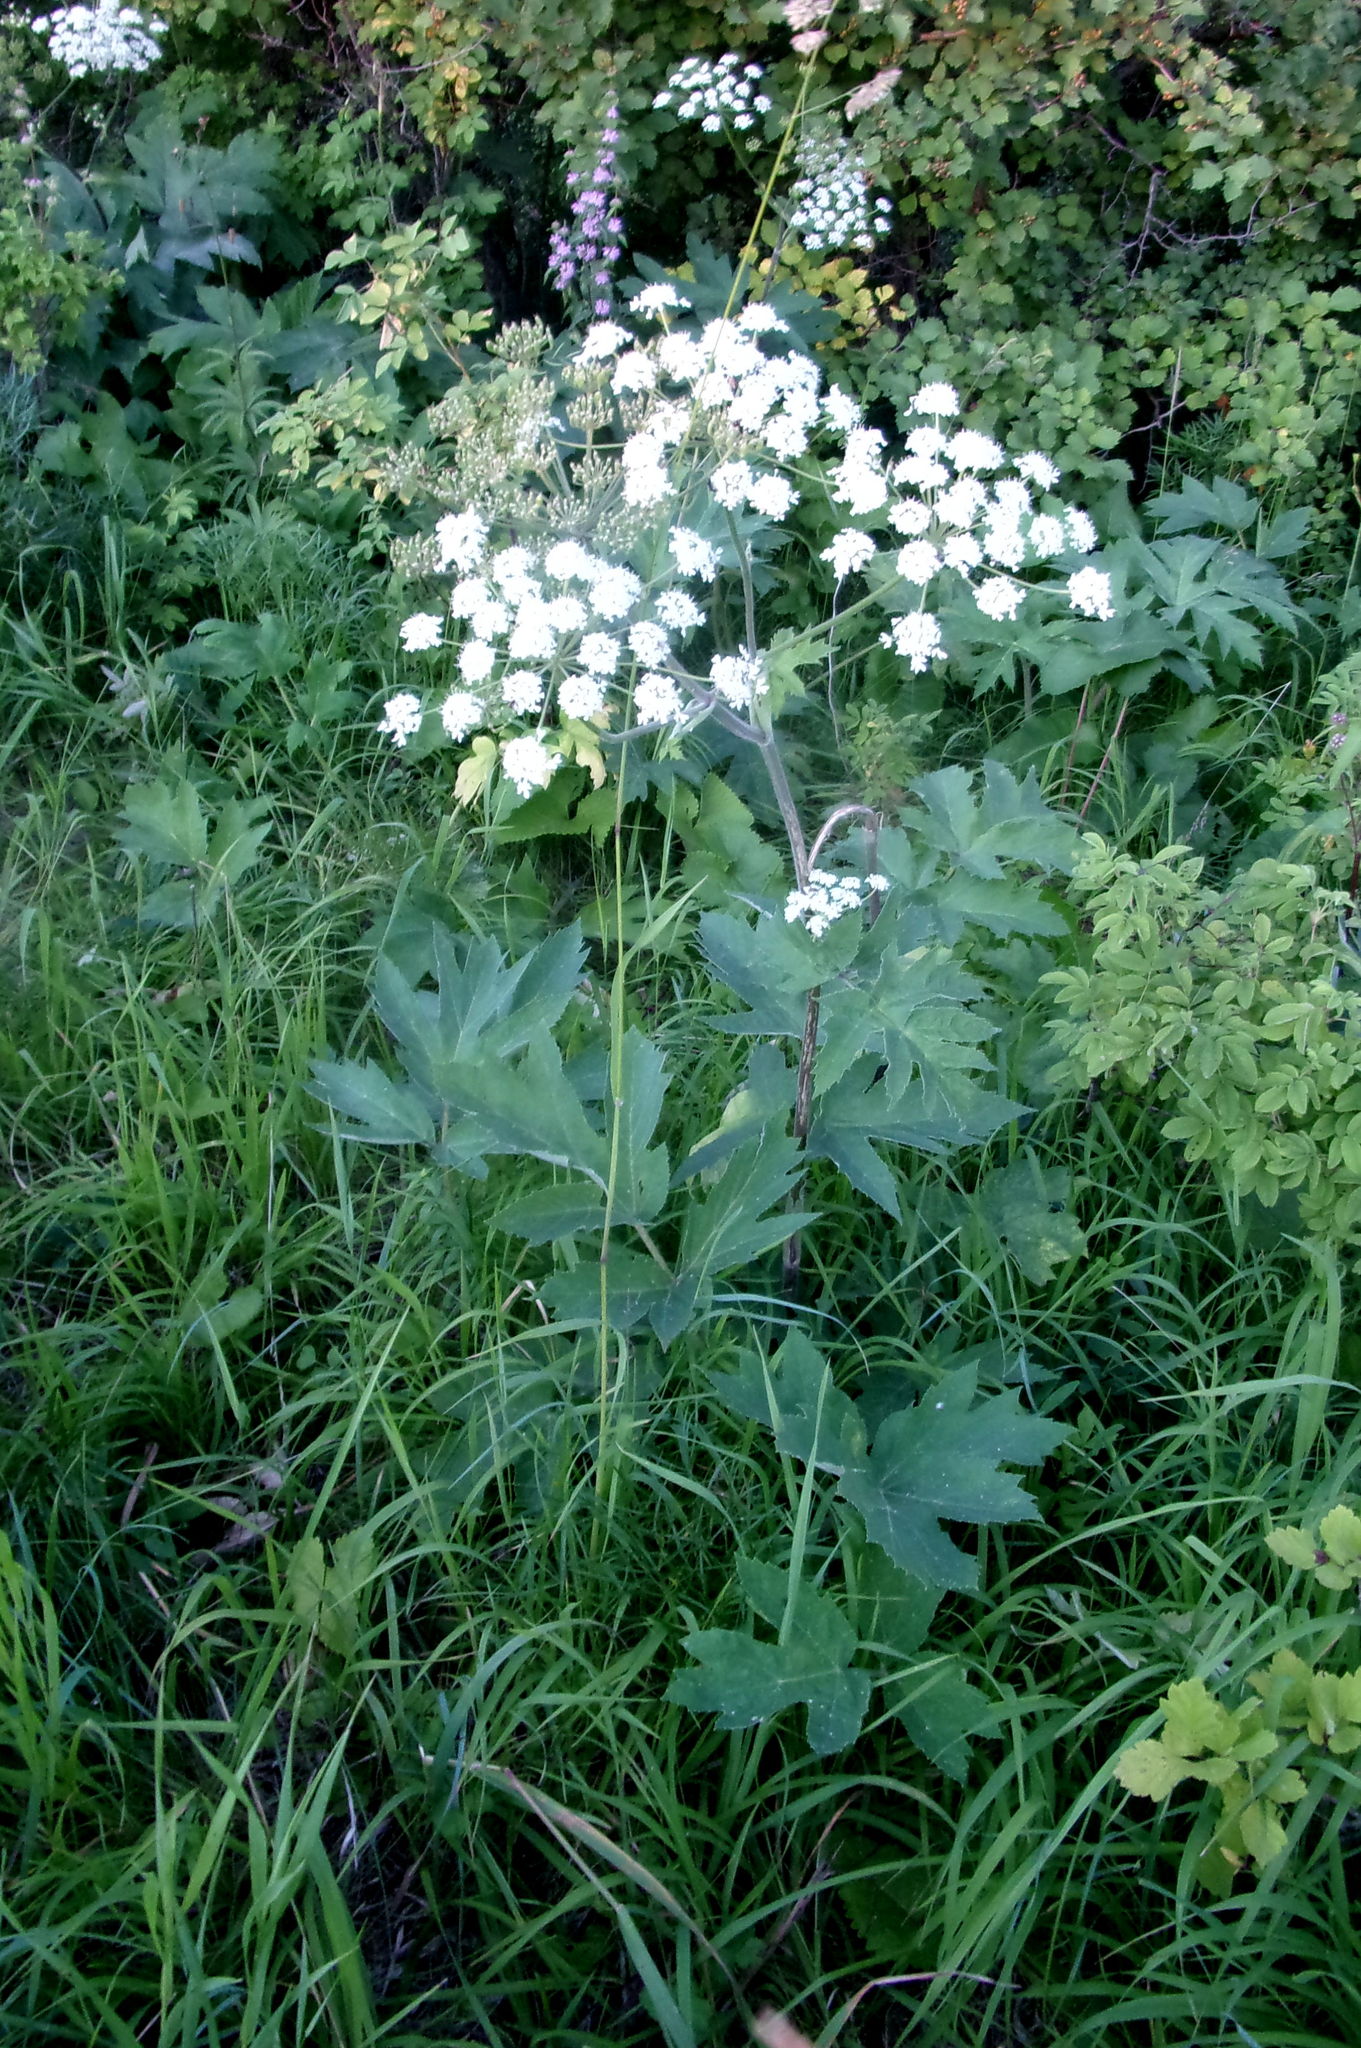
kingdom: Plantae
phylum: Tracheophyta
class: Magnoliopsida
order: Apiales
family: Apiaceae
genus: Heracleum
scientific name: Heracleum dissectum
